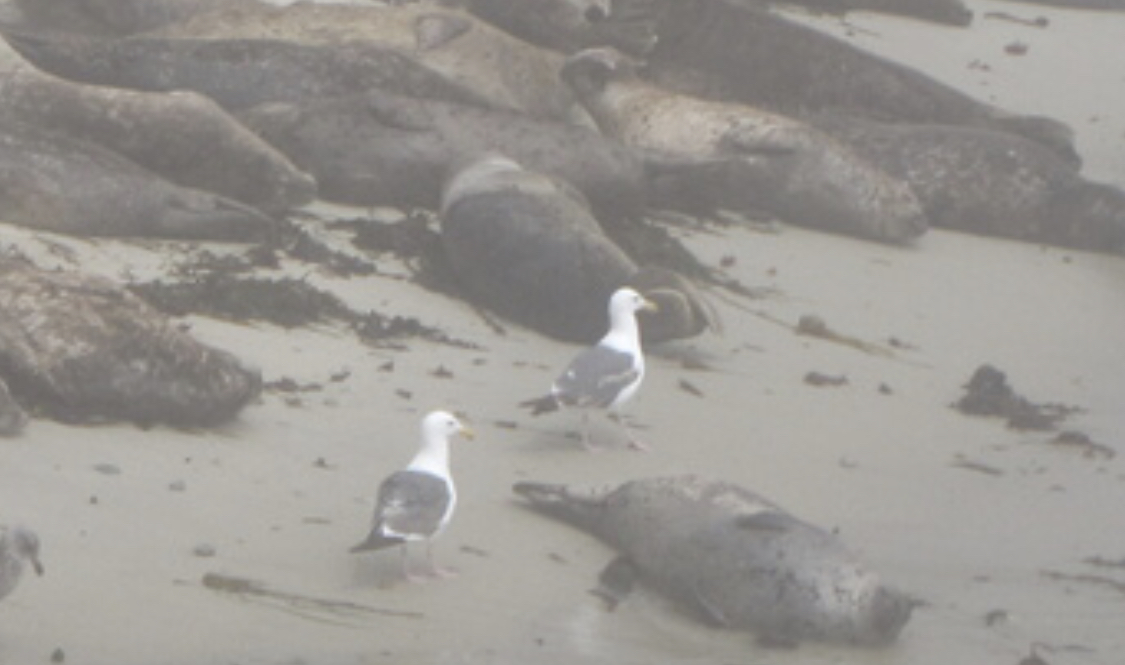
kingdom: Animalia
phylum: Chordata
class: Aves
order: Charadriiformes
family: Laridae
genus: Larus
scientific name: Larus occidentalis
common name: Western gull
